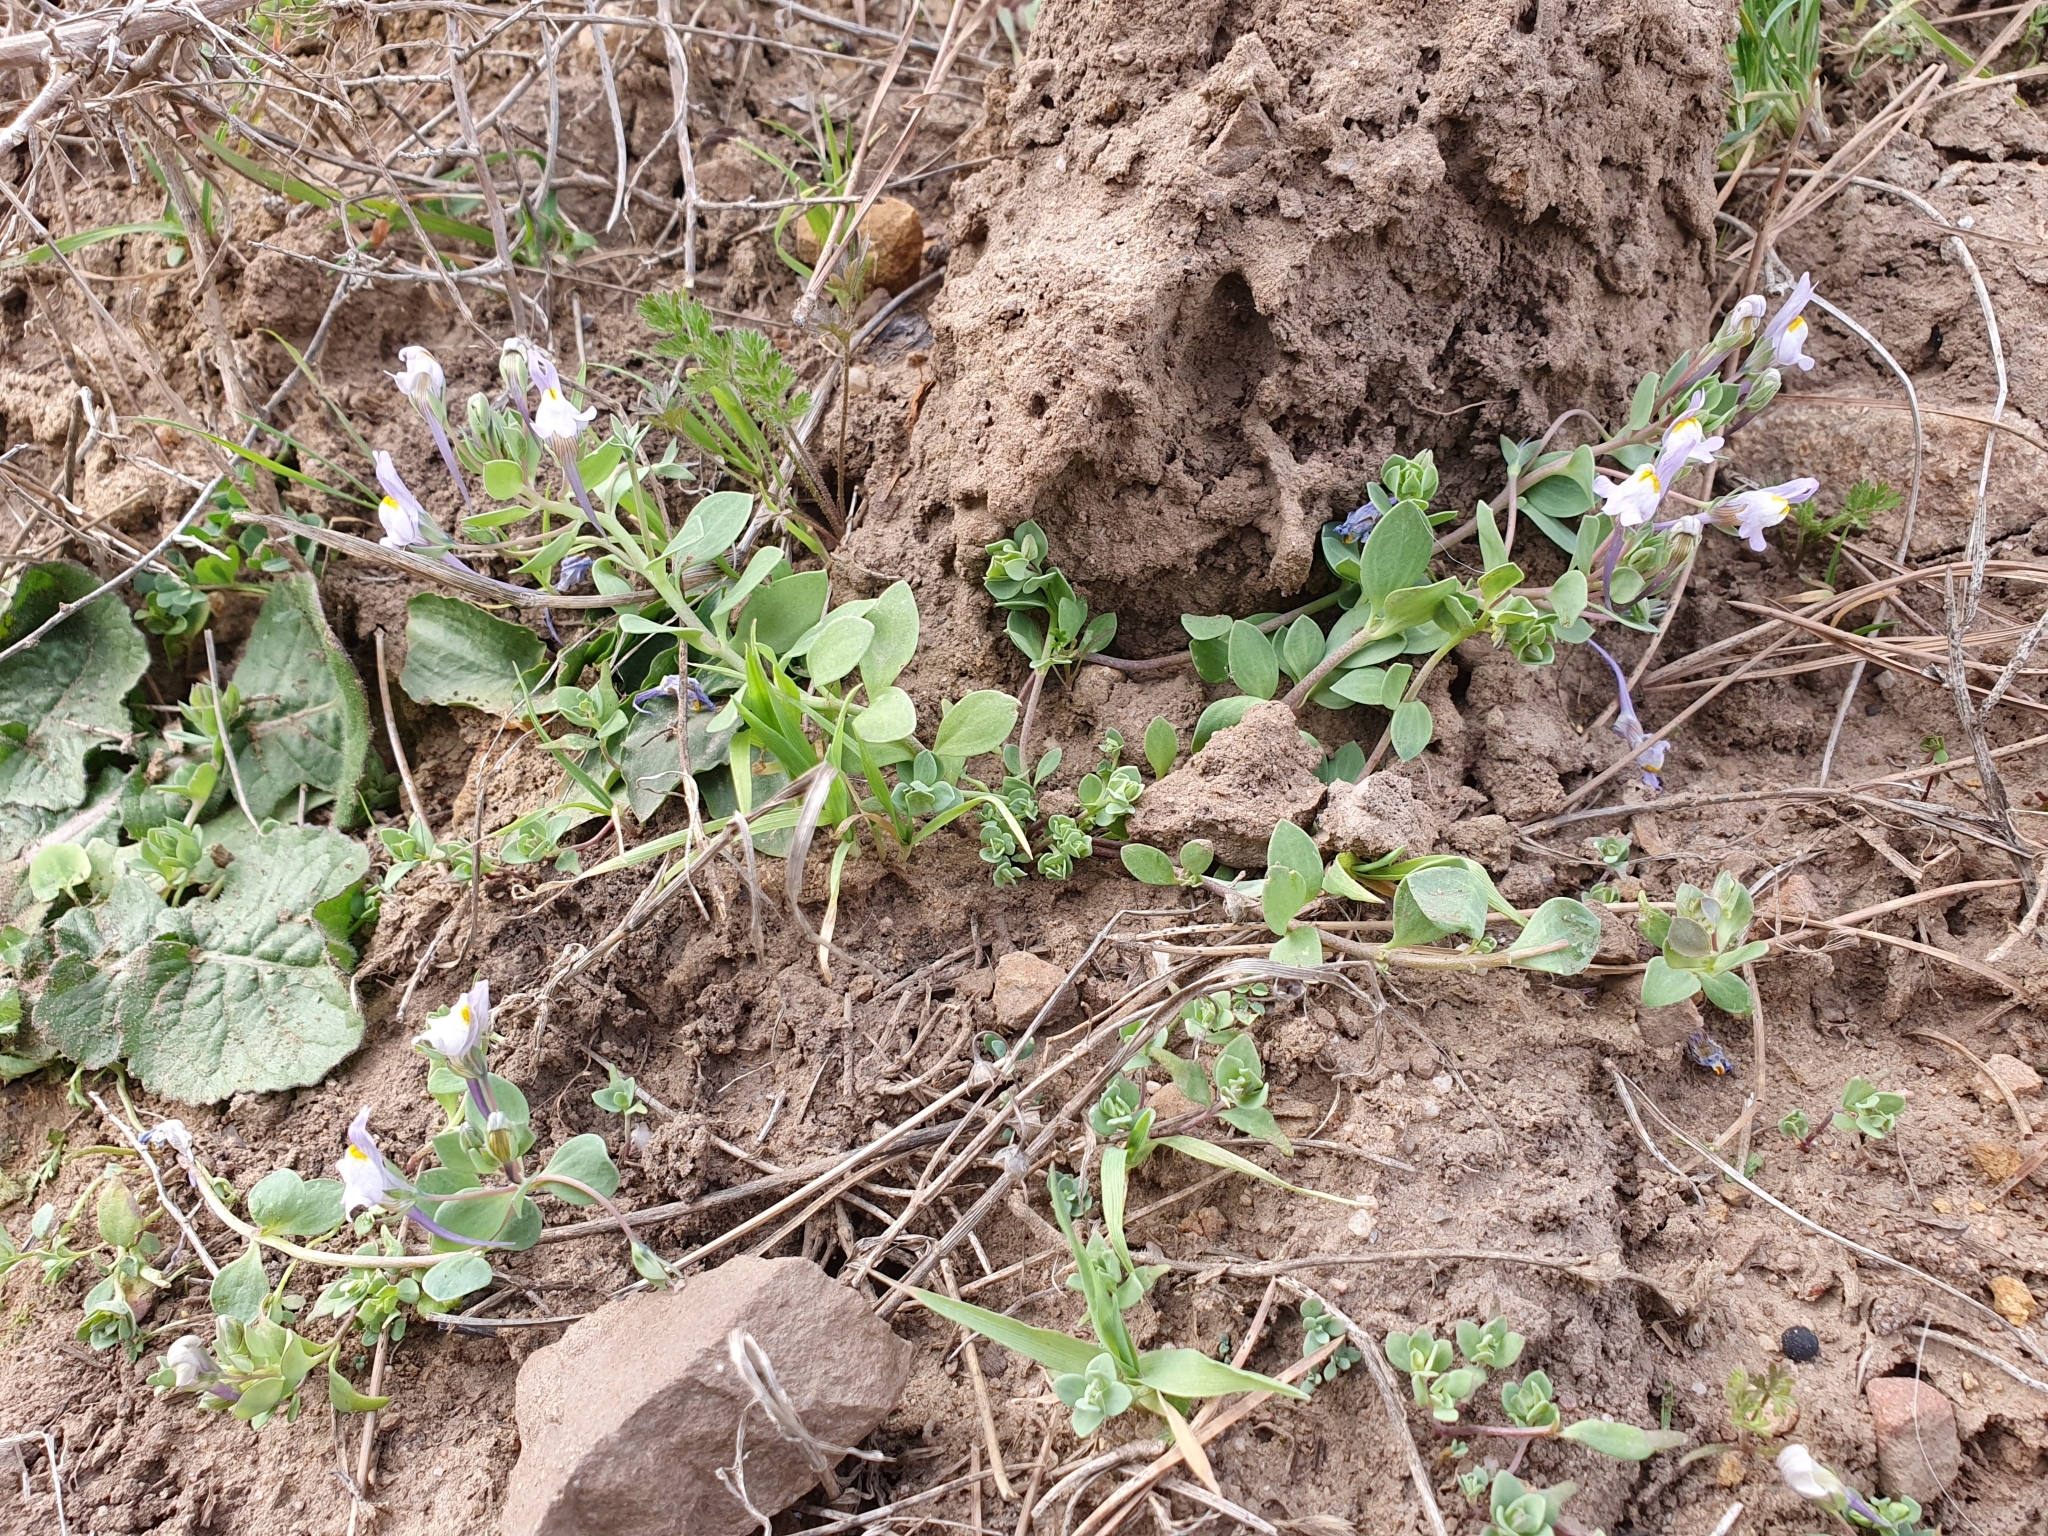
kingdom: Plantae
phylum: Tracheophyta
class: Magnoliopsida
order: Lamiales
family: Plantaginaceae
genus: Linaria
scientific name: Linaria reflexa
